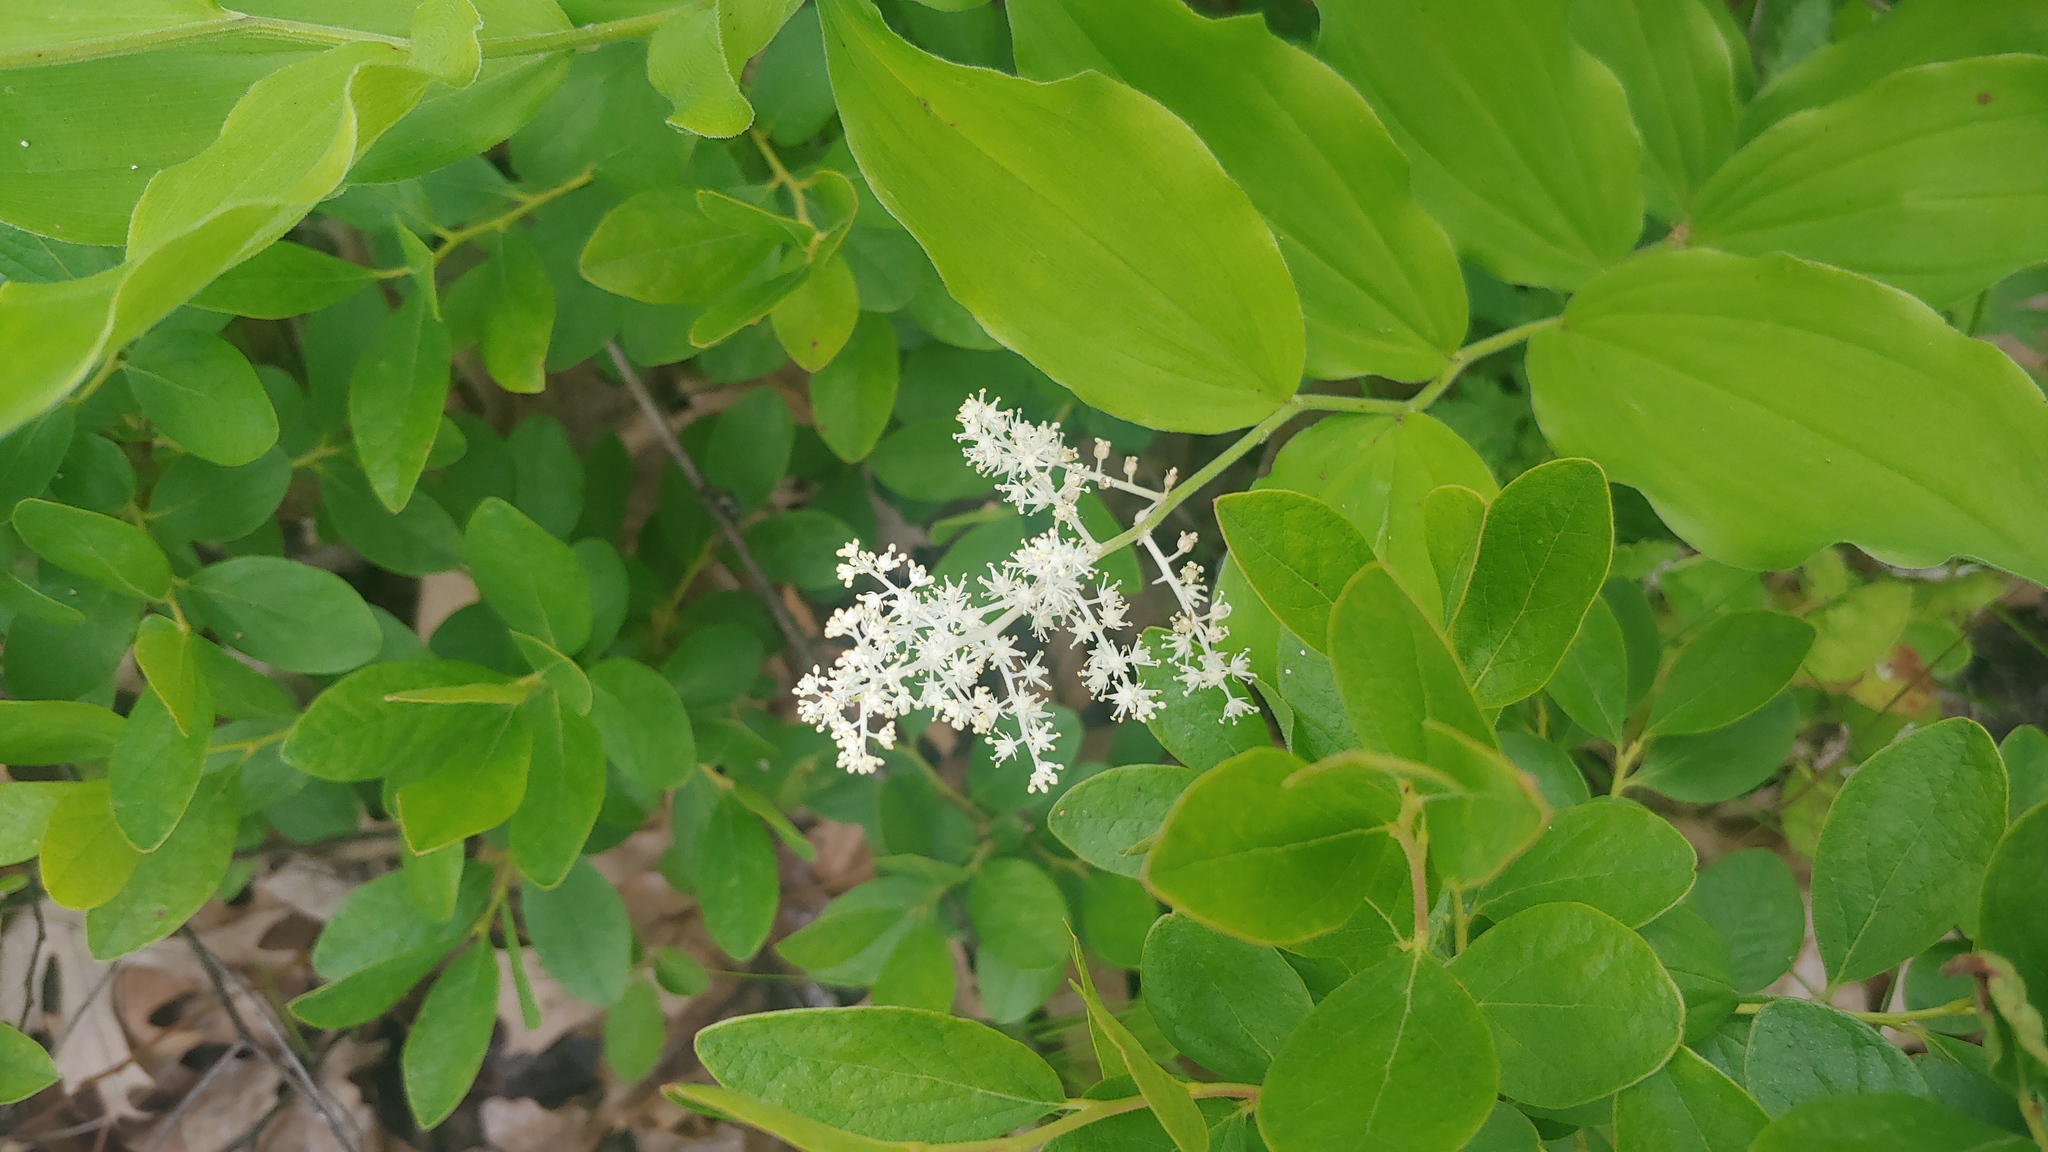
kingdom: Plantae
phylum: Tracheophyta
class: Liliopsida
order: Asparagales
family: Asparagaceae
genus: Maianthemum
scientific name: Maianthemum racemosum
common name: False spikenard
